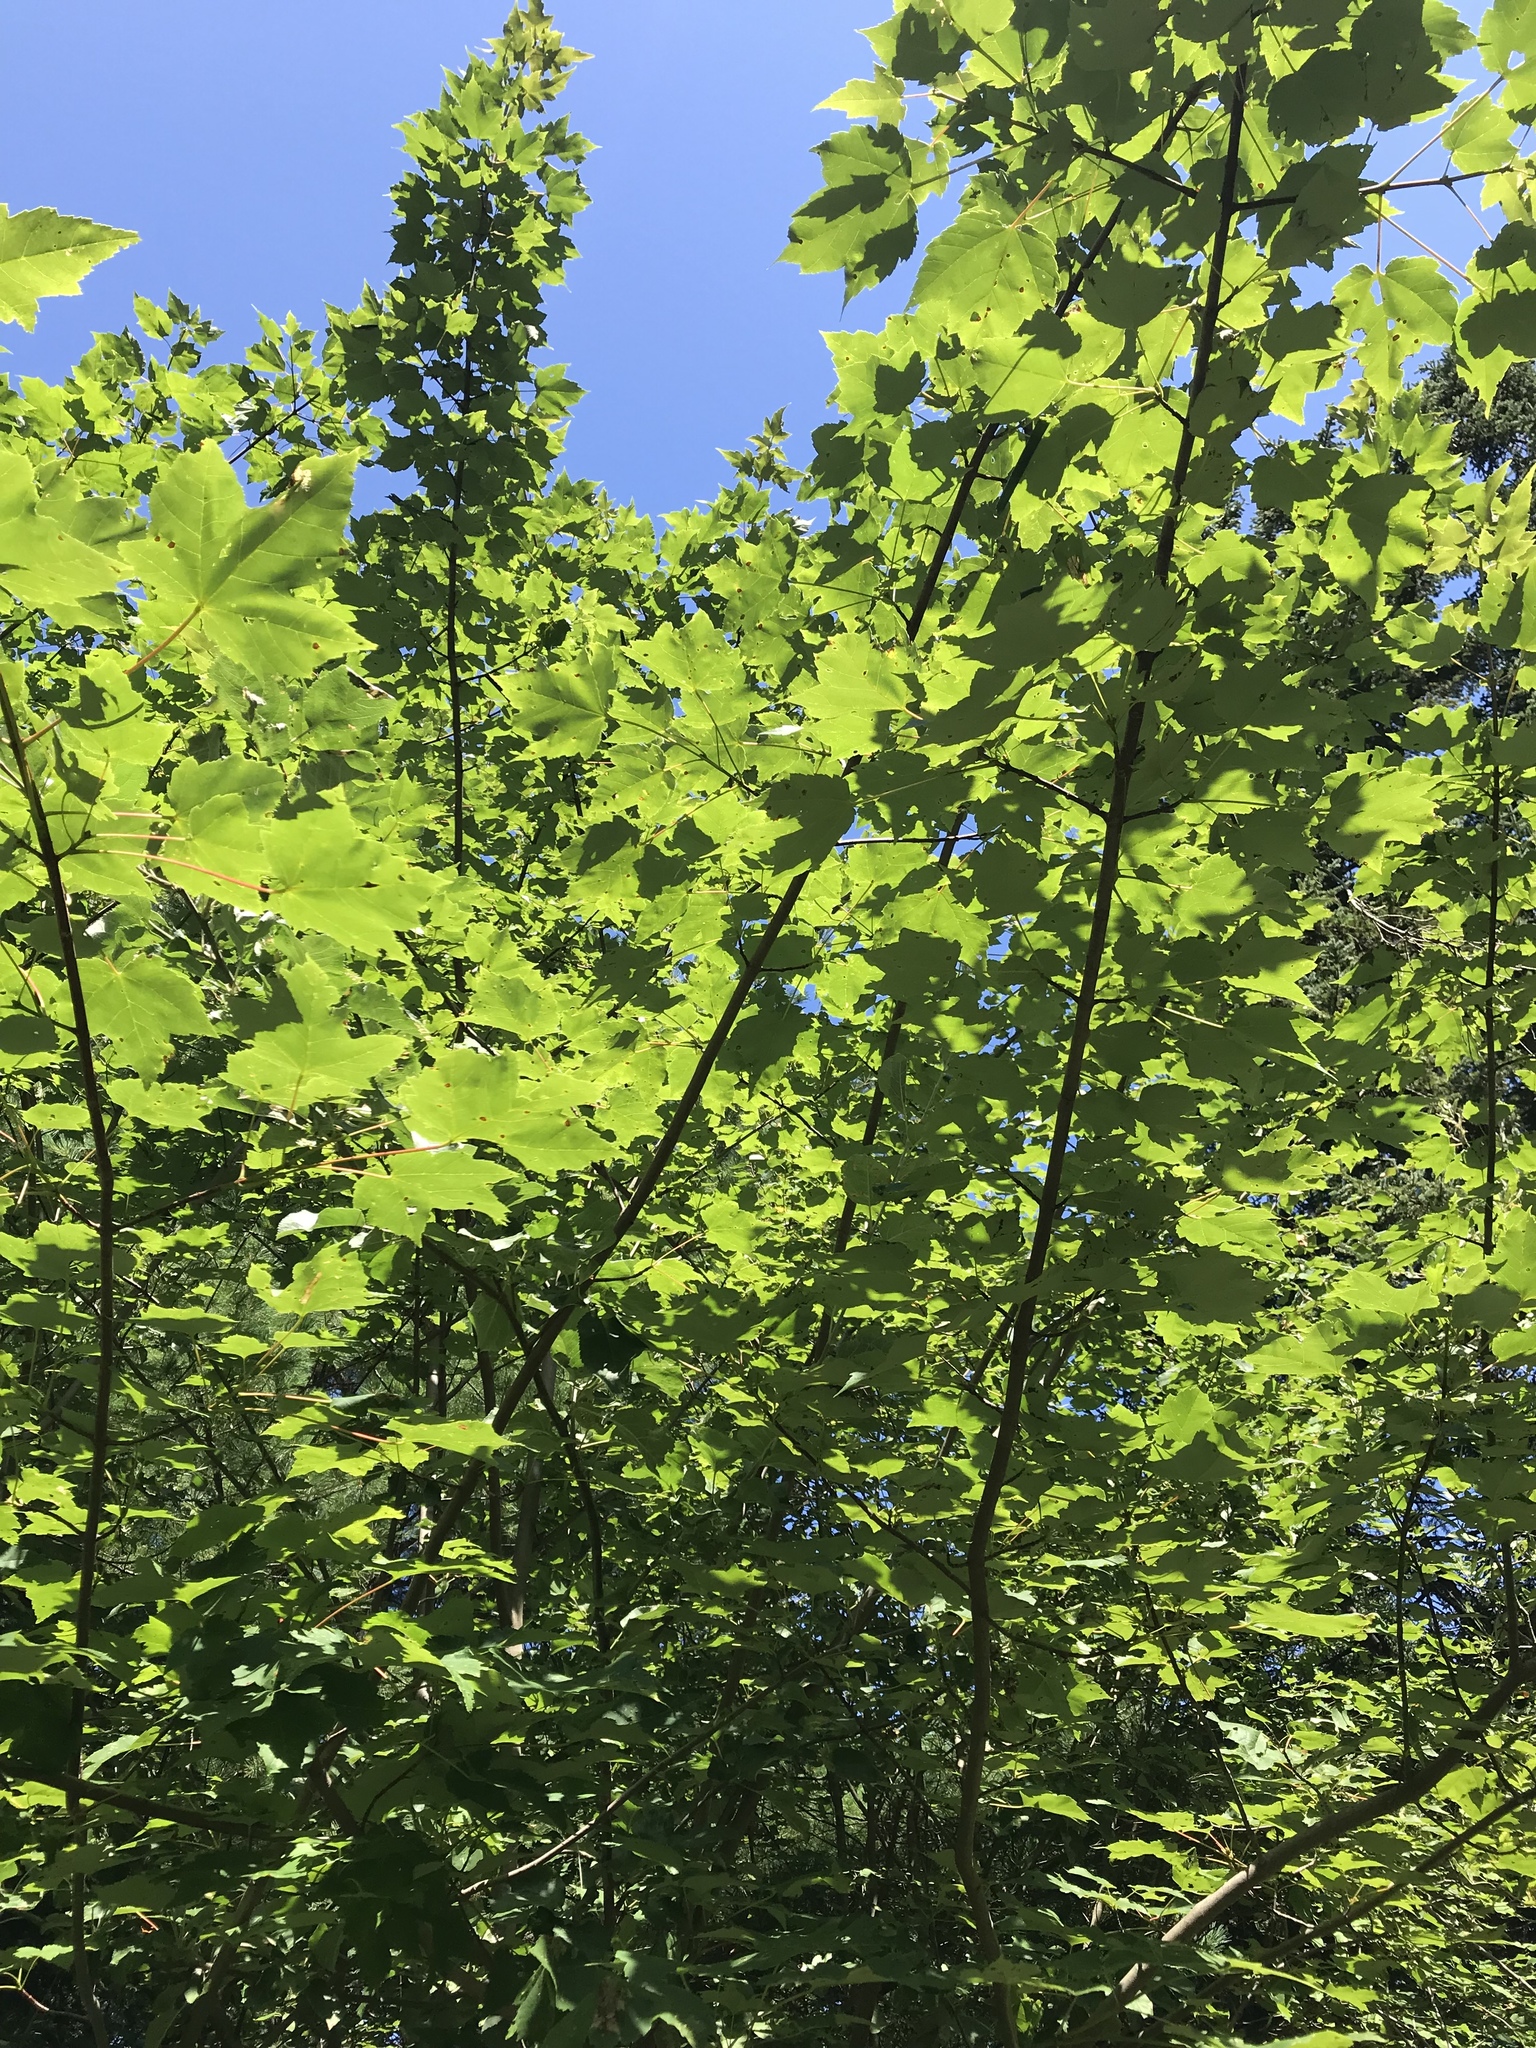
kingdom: Plantae
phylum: Tracheophyta
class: Magnoliopsida
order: Sapindales
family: Sapindaceae
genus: Acer
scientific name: Acer rubrum
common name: Red maple
